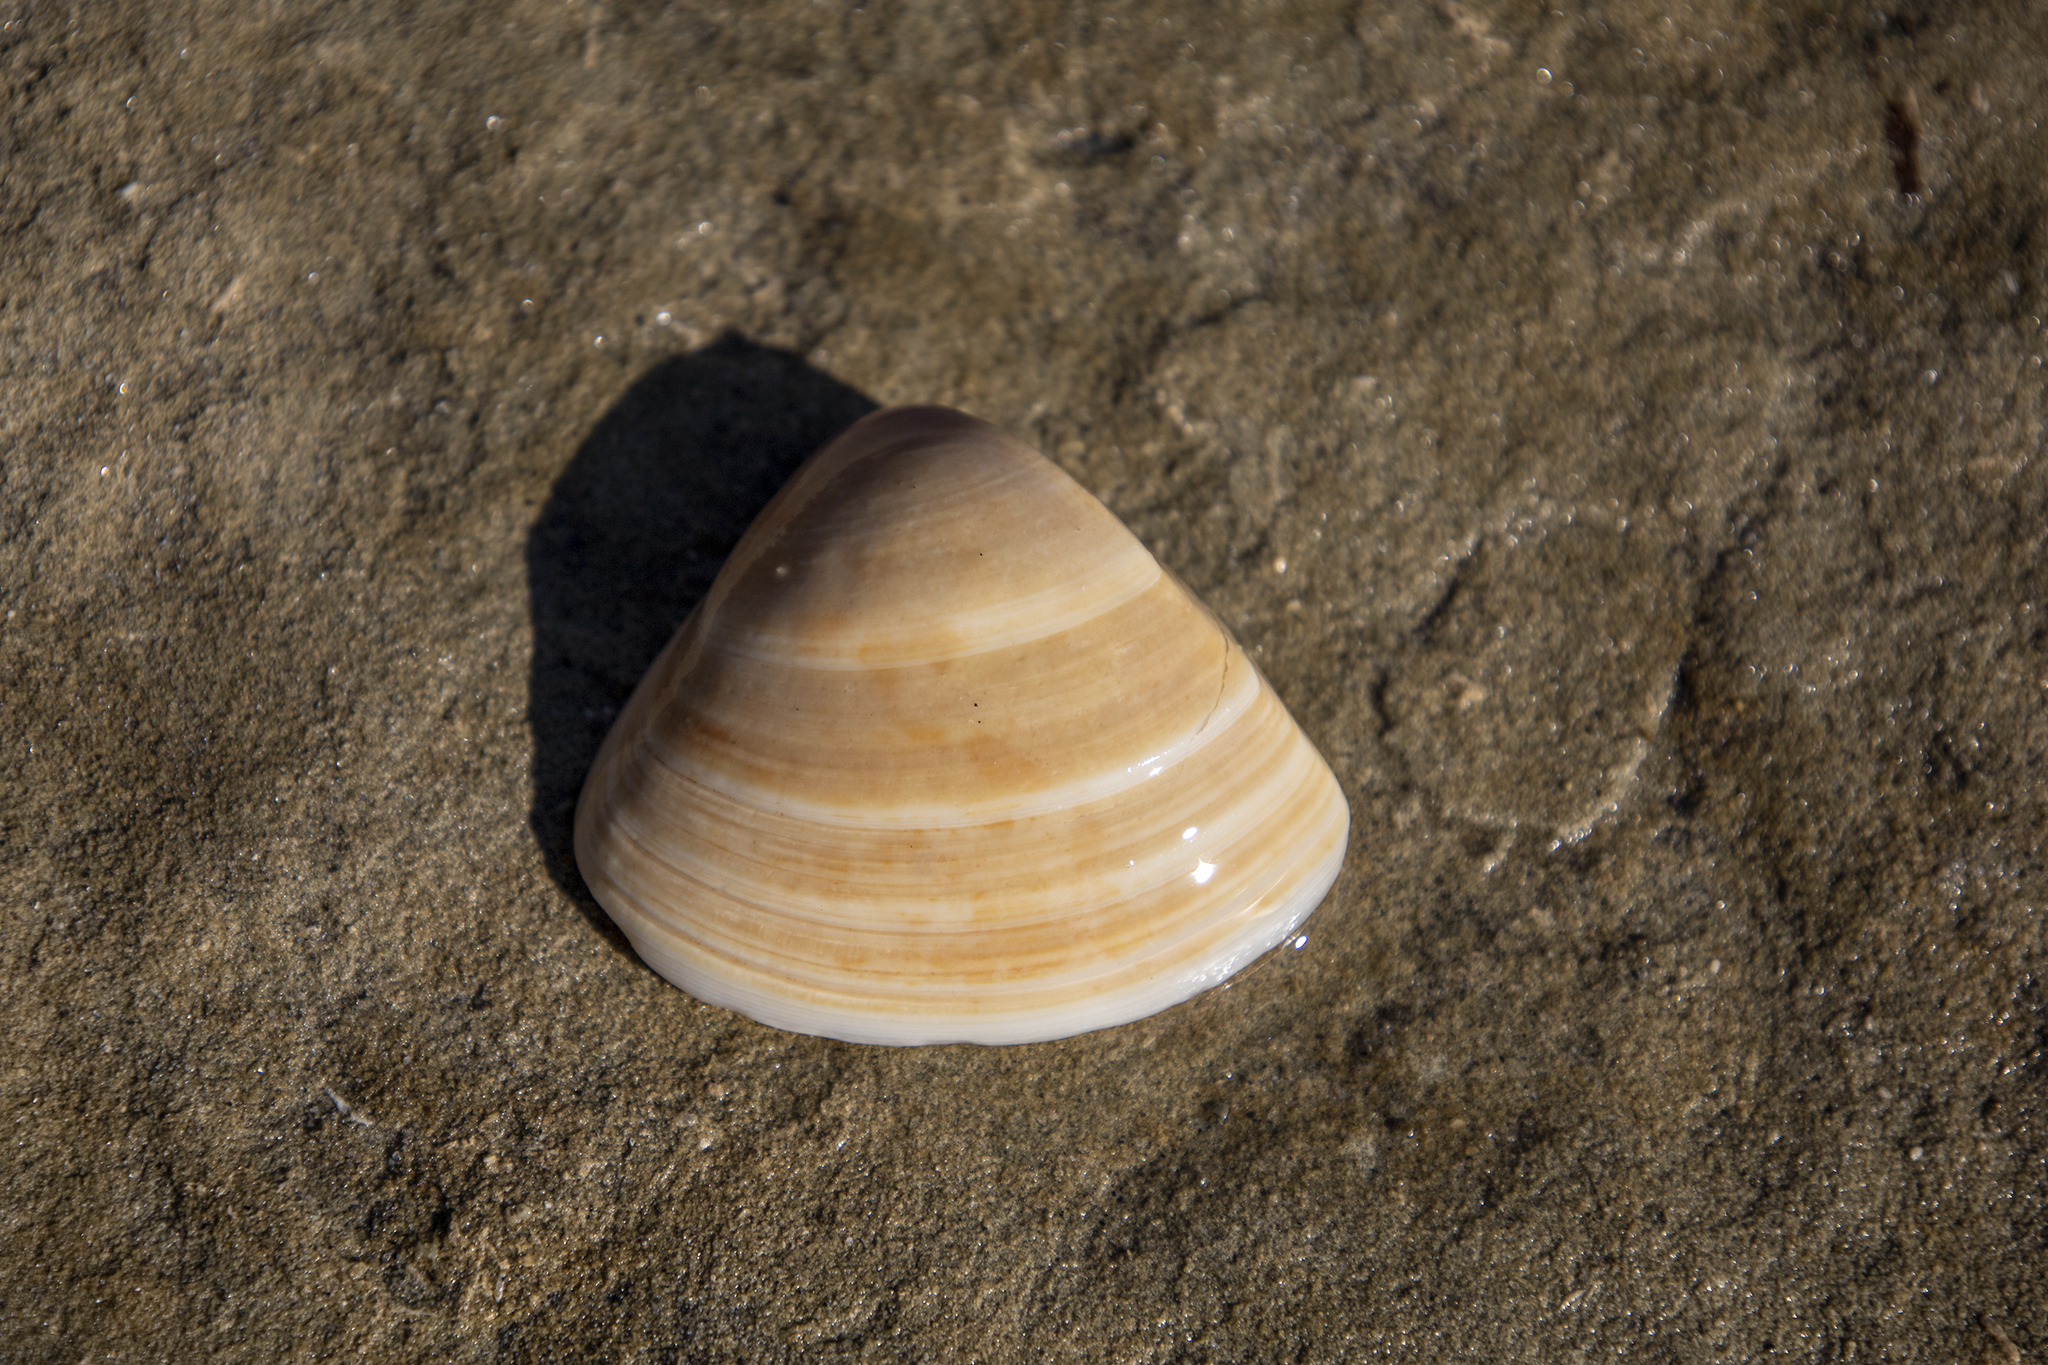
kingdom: Animalia
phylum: Mollusca
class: Bivalvia
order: Venerida
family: Mactridae
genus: Crassula
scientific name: Crassula aequilatera
